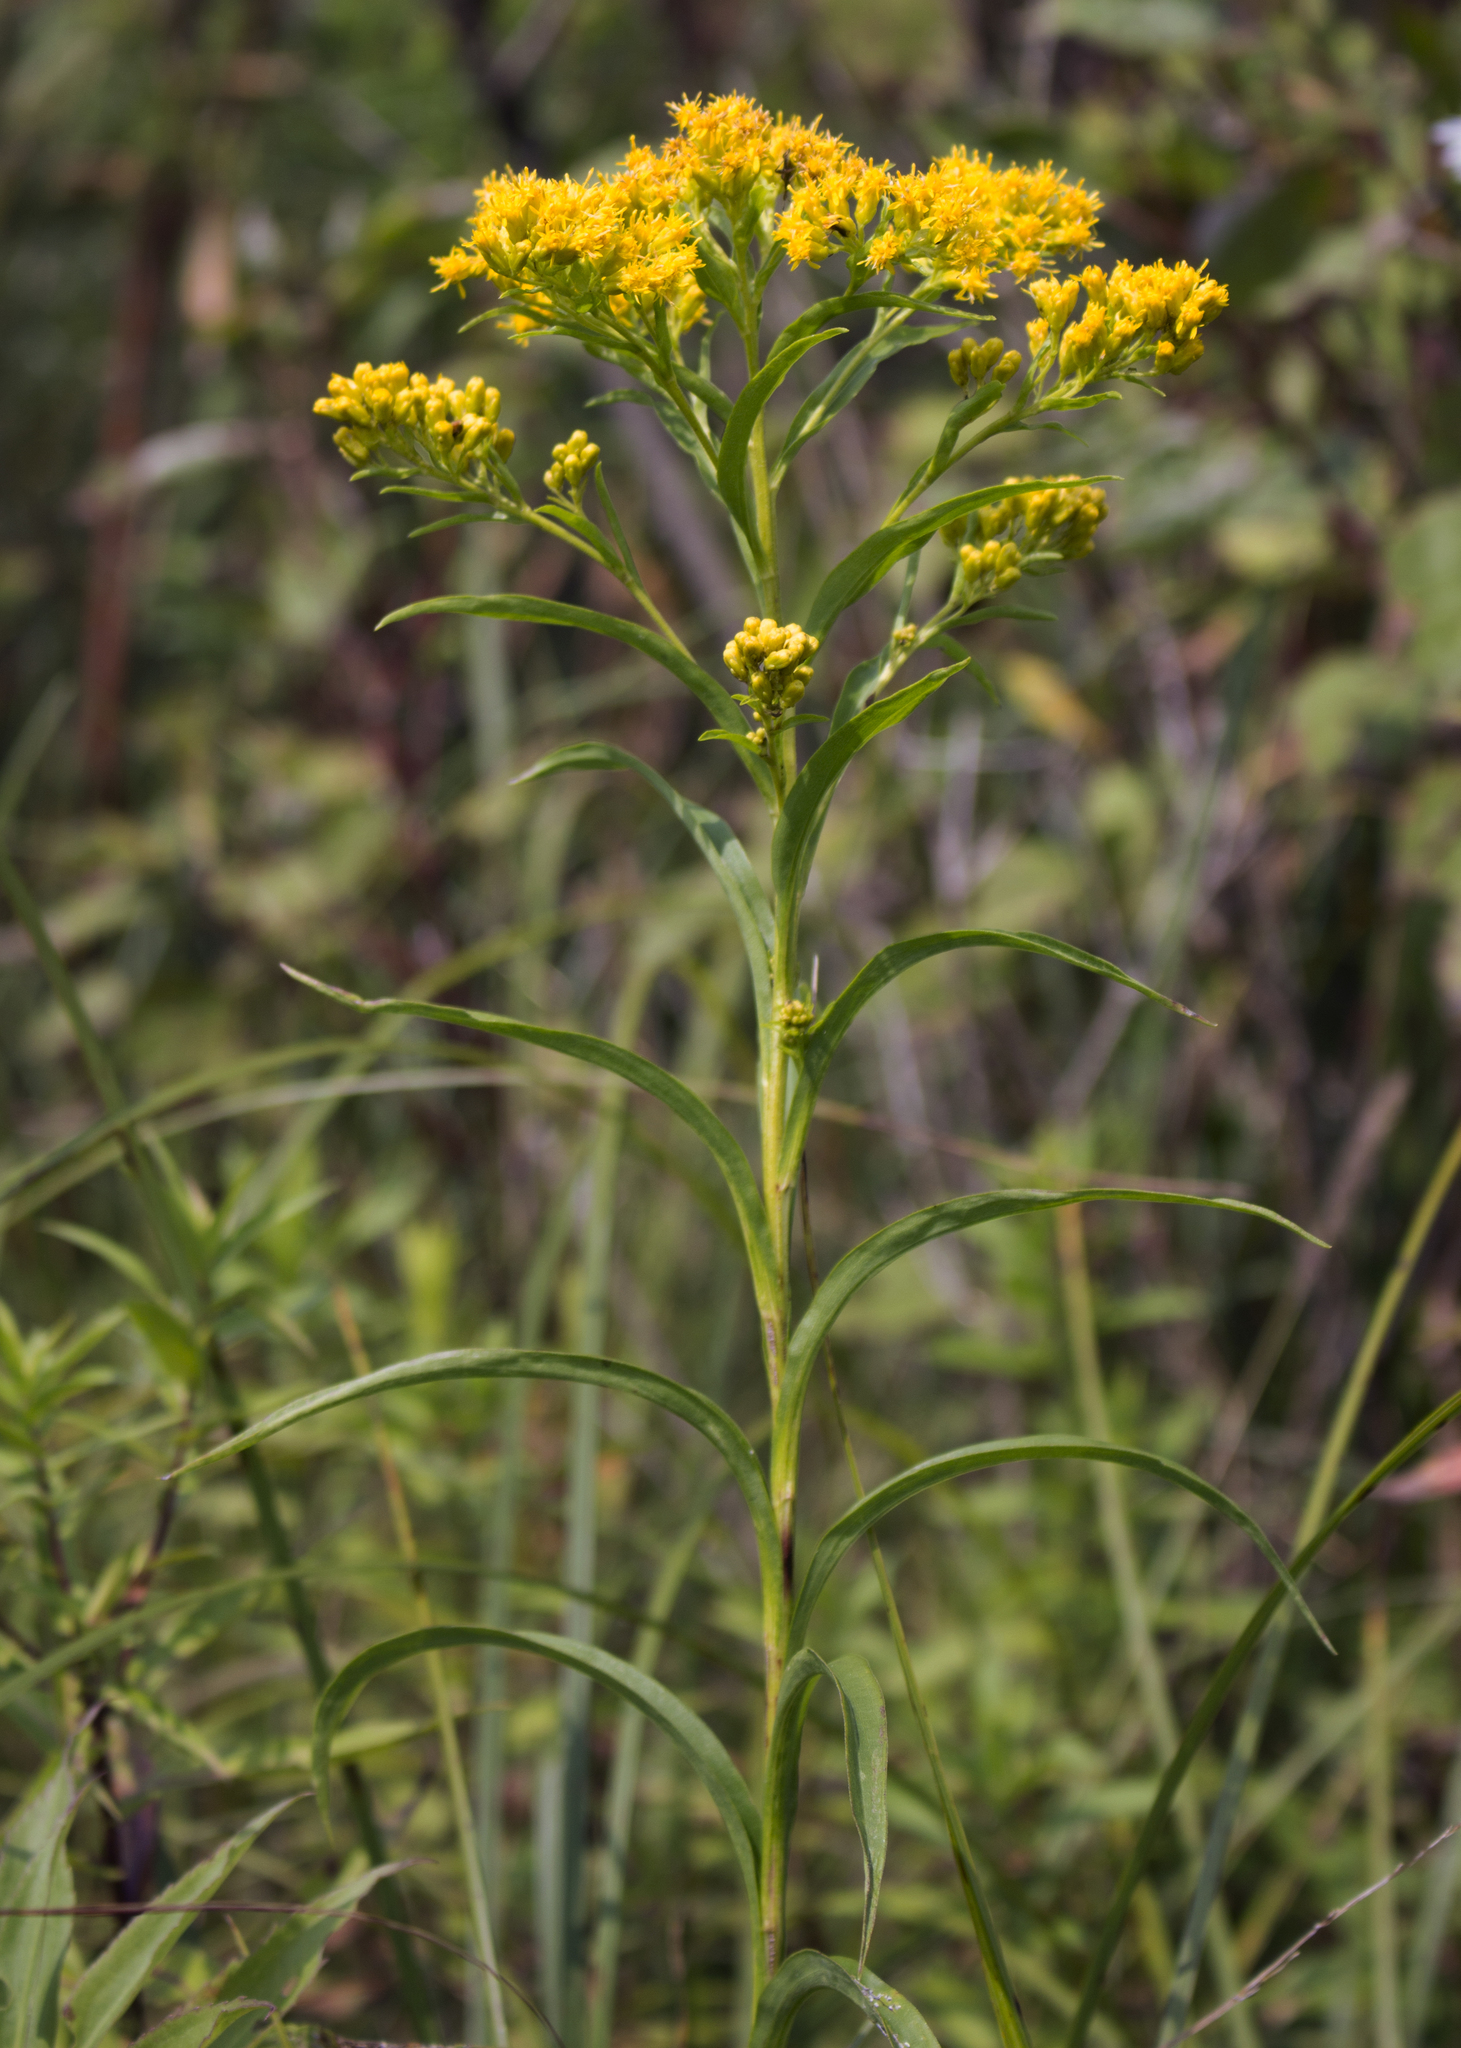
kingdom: Plantae
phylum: Tracheophyta
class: Magnoliopsida
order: Asterales
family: Asteraceae
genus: Solidago
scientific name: Solidago riddellii
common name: Riddell's goldenrod
